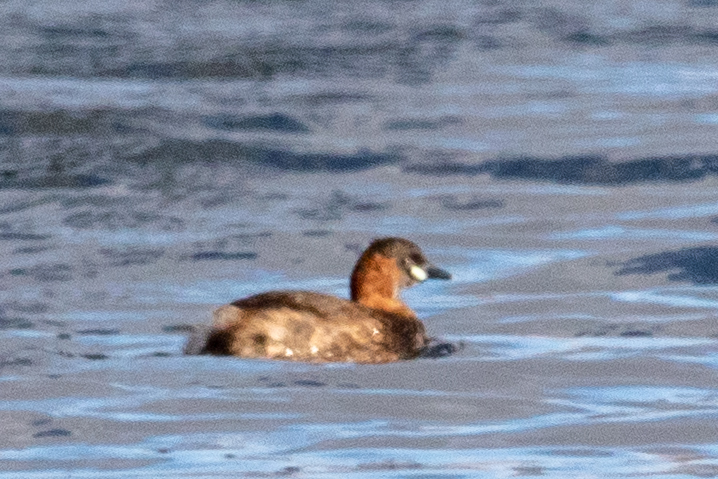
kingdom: Animalia
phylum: Chordata
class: Aves
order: Podicipediformes
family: Podicipedidae
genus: Tachybaptus
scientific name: Tachybaptus ruficollis
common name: Little grebe
